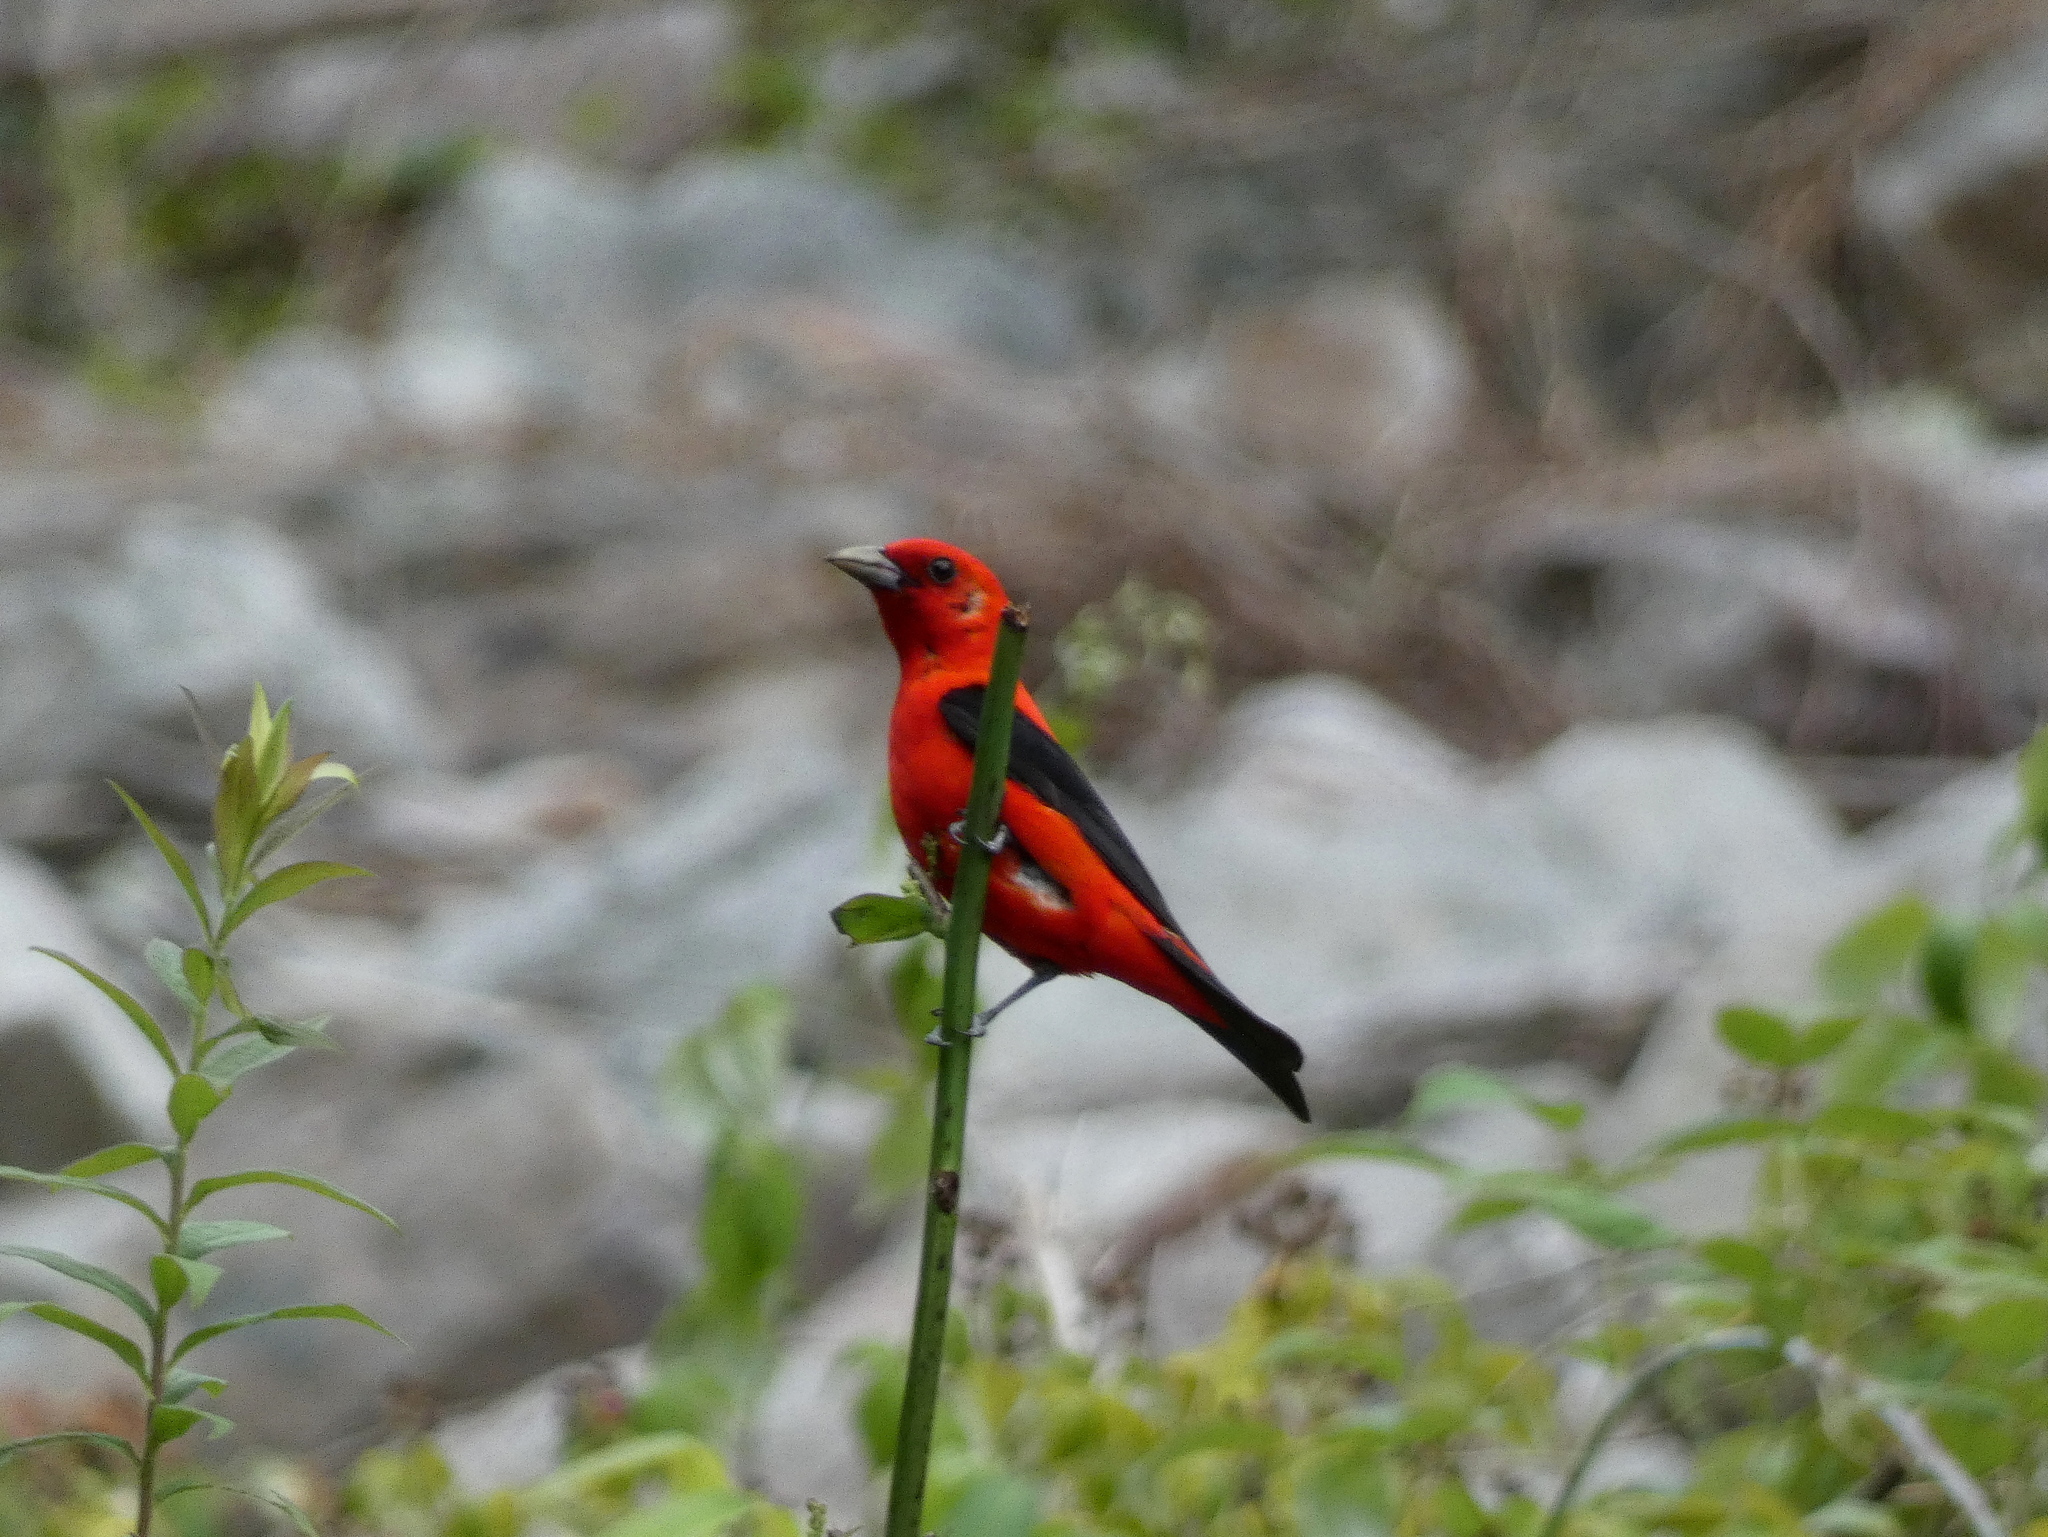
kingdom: Animalia
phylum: Chordata
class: Aves
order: Passeriformes
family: Cardinalidae
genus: Piranga
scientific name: Piranga olivacea
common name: Scarlet tanager
